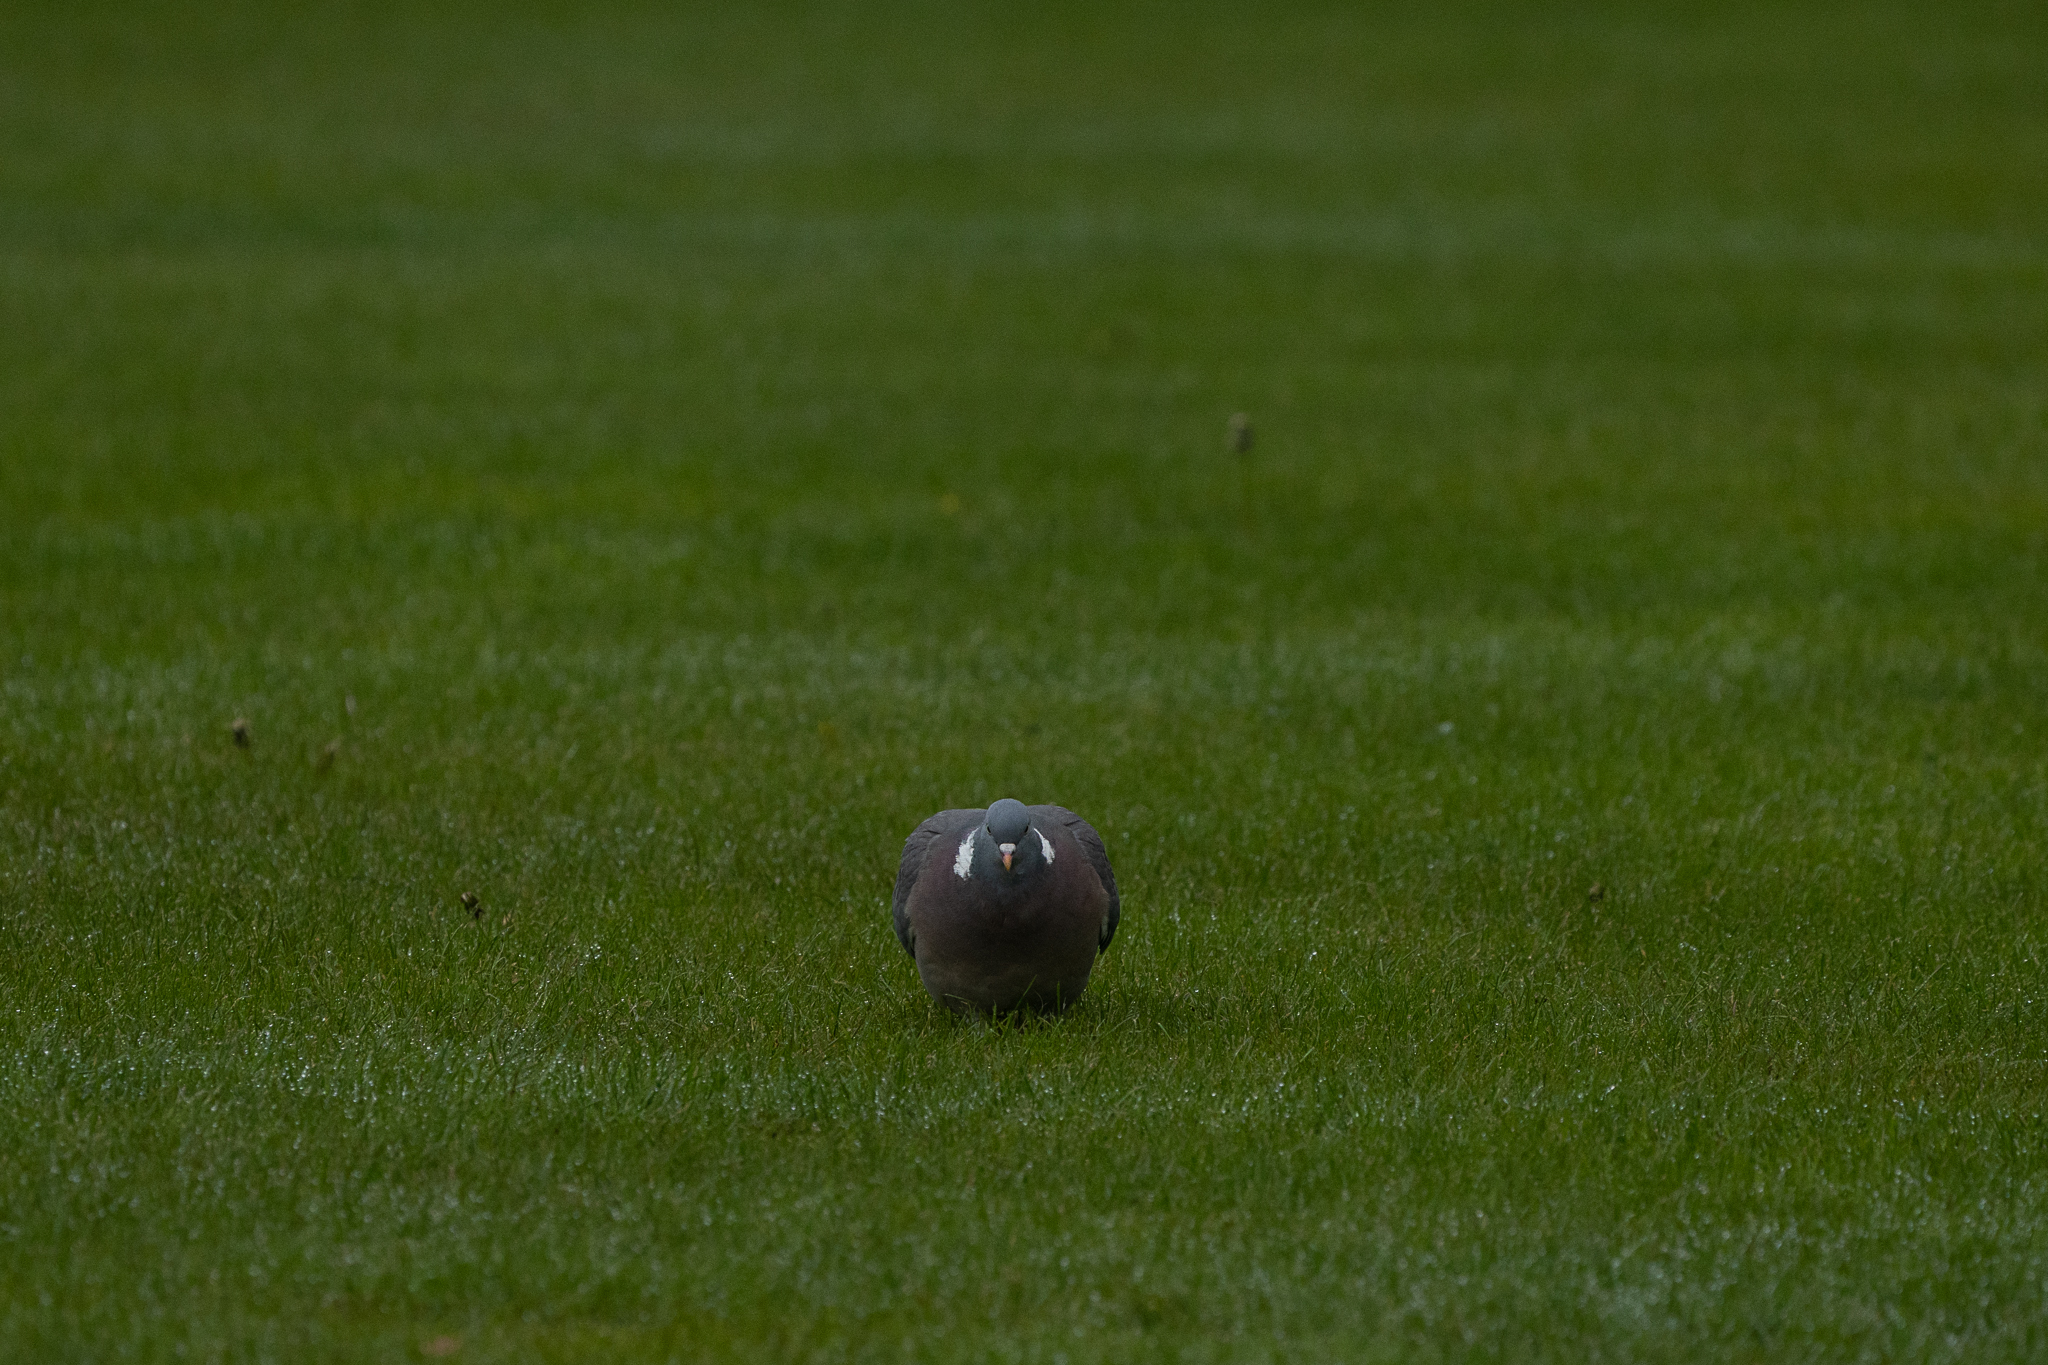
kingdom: Animalia
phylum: Chordata
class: Aves
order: Columbiformes
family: Columbidae
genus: Columba
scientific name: Columba palumbus
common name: Common wood pigeon
